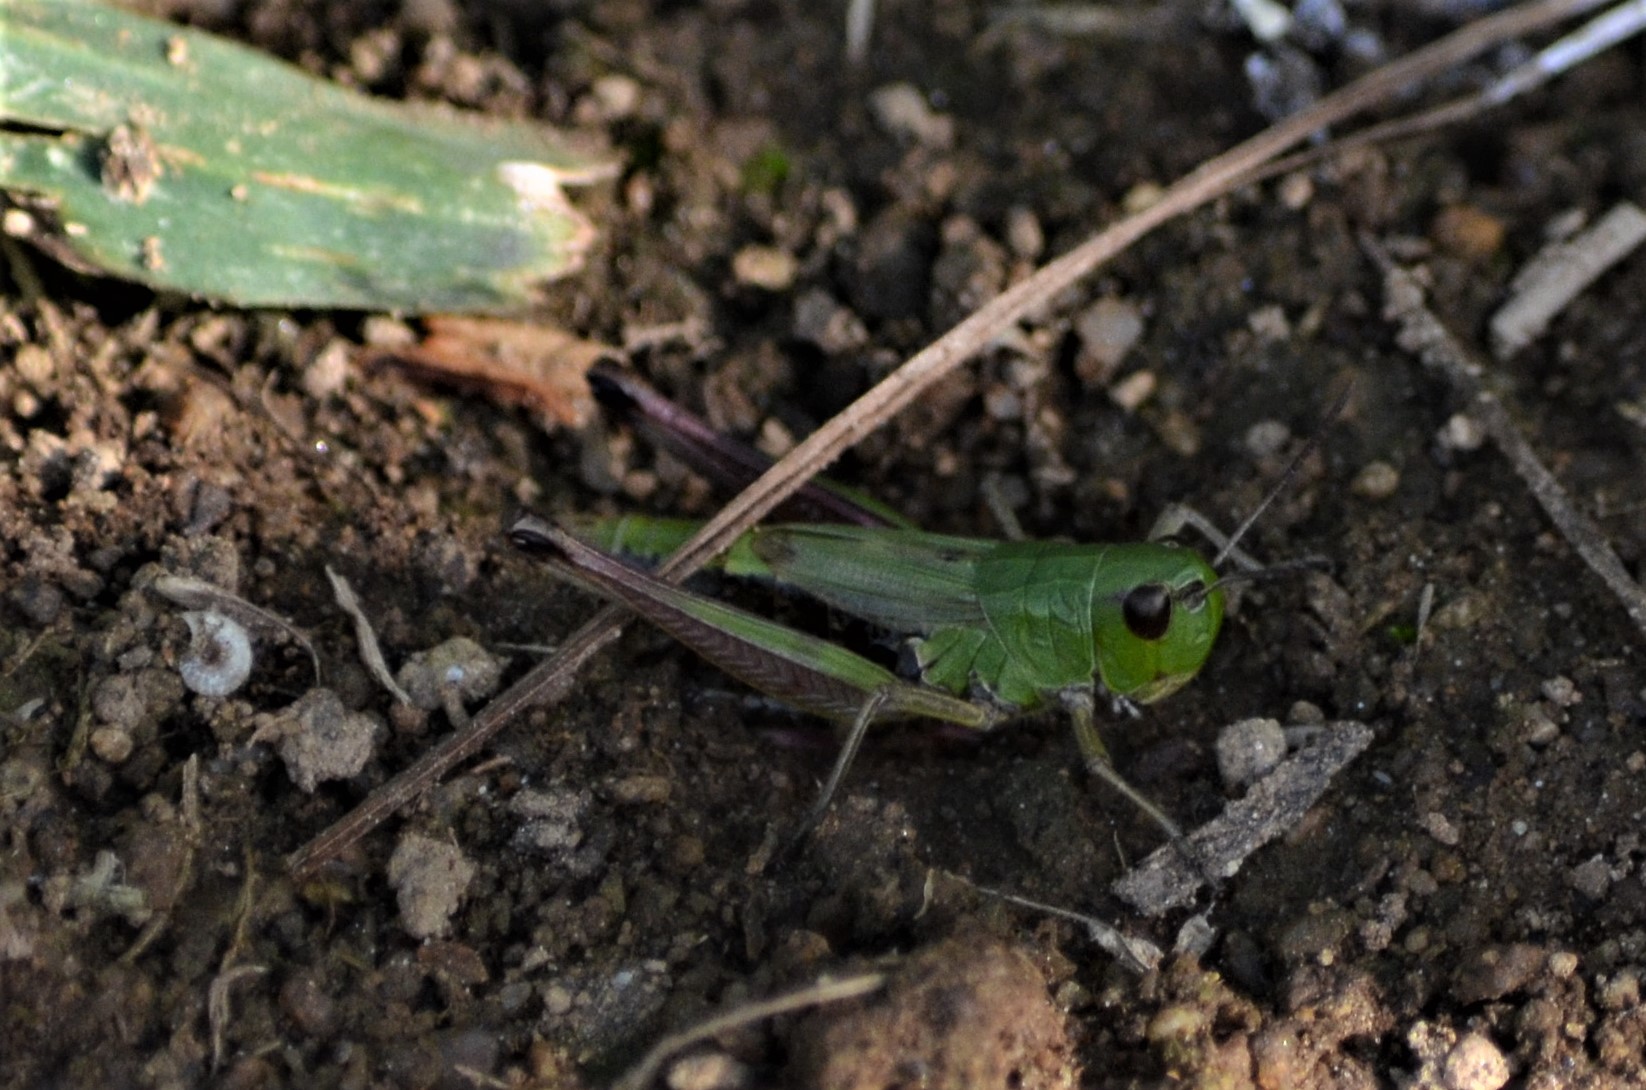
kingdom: Animalia
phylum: Arthropoda
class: Insecta
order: Orthoptera
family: Acrididae
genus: Pseudochorthippus
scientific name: Pseudochorthippus parallelus
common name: Meadow grasshopper
